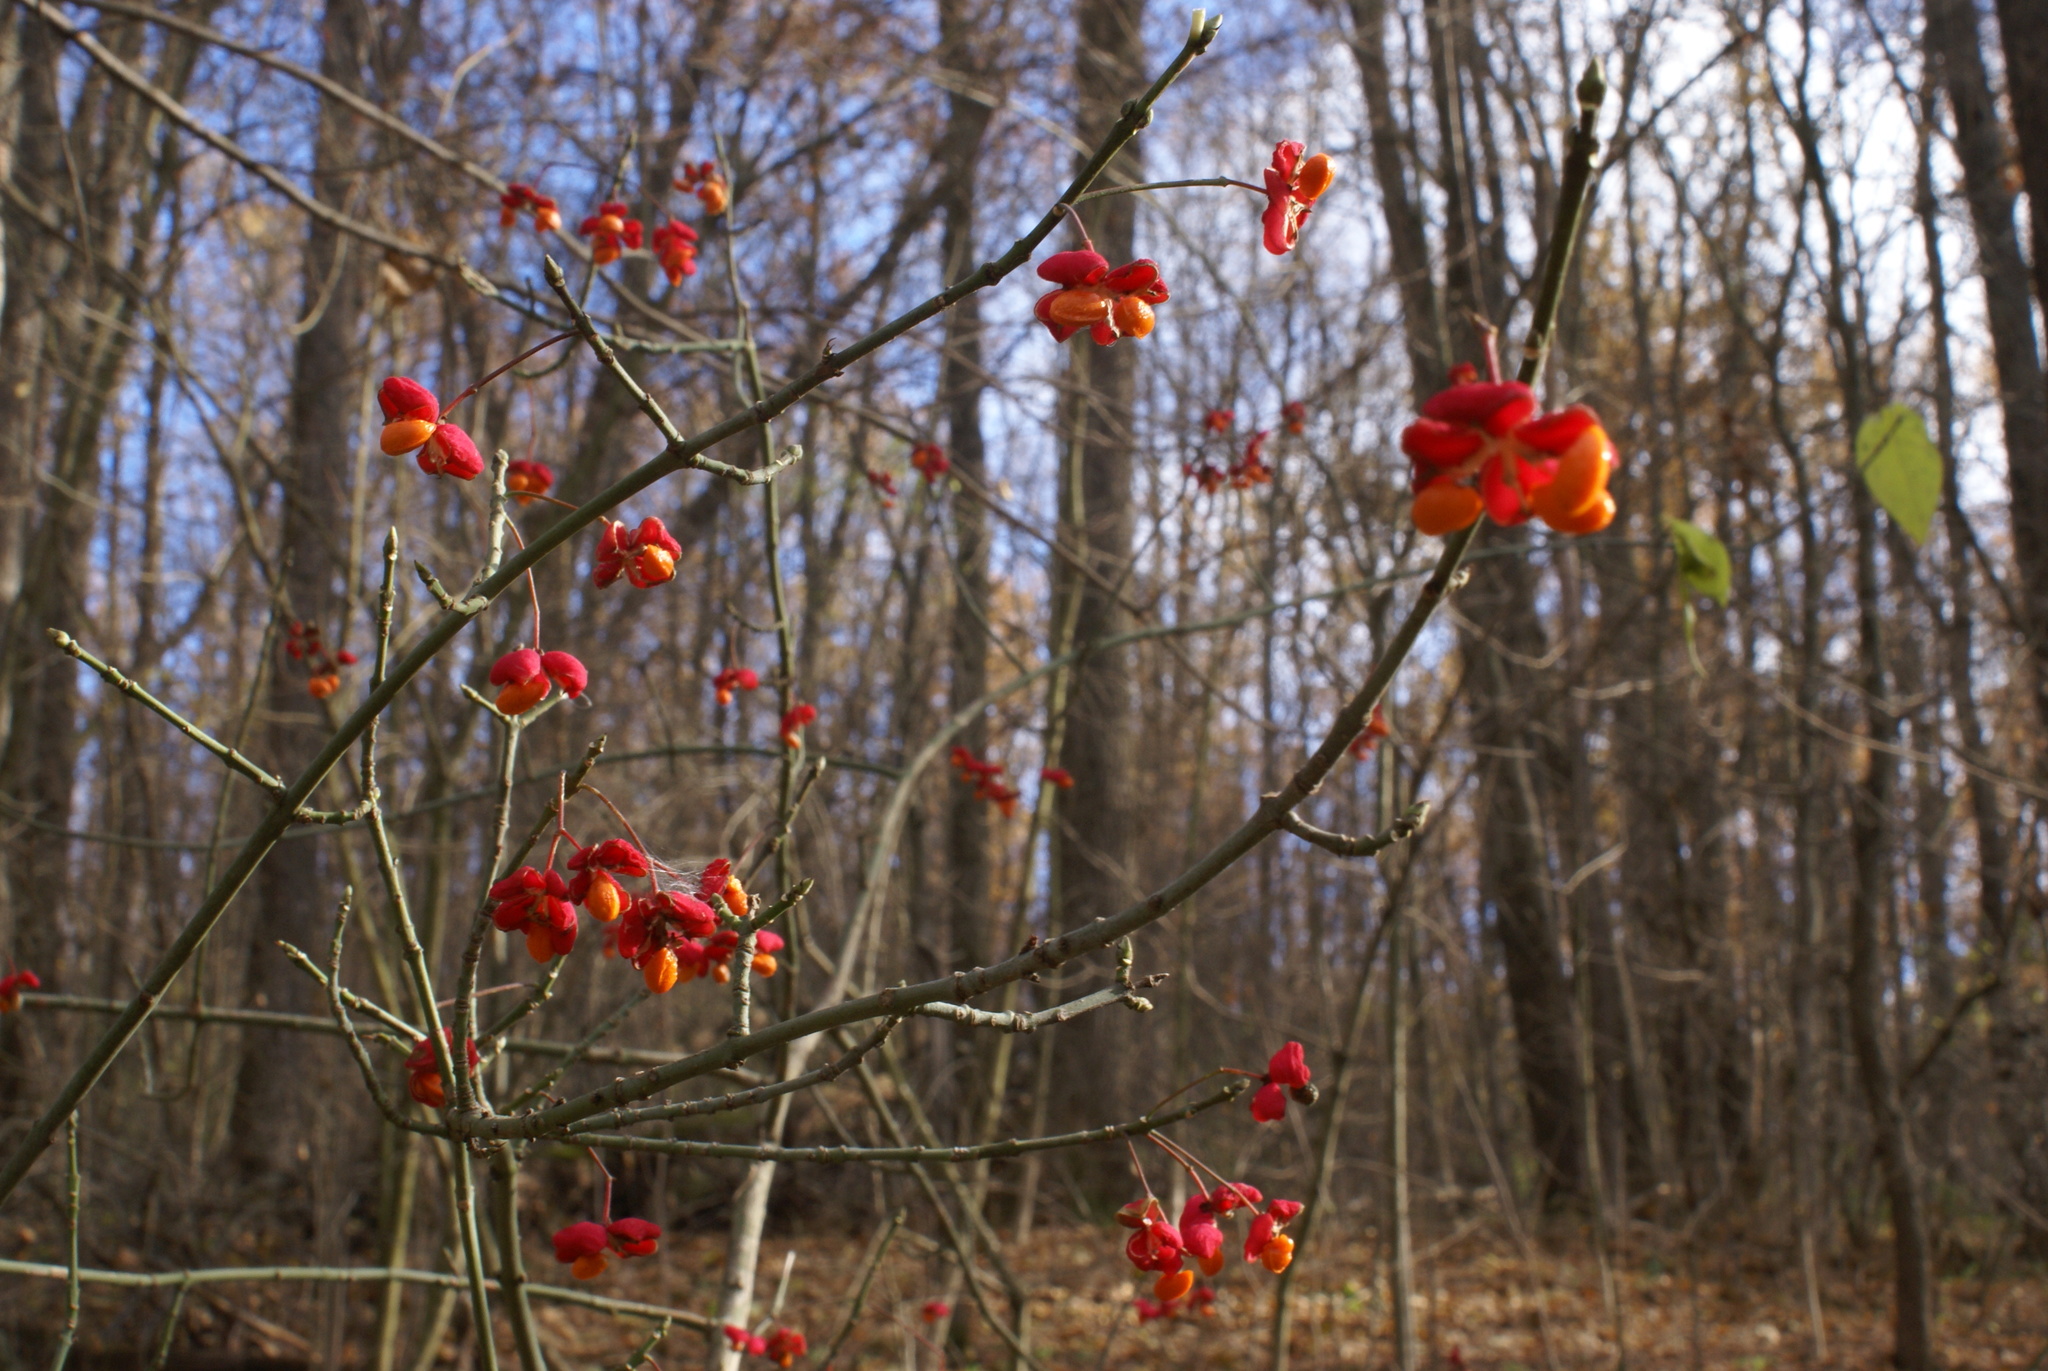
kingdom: Plantae
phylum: Tracheophyta
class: Magnoliopsida
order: Celastrales
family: Celastraceae
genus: Euonymus
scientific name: Euonymus europaeus
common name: Spindle
